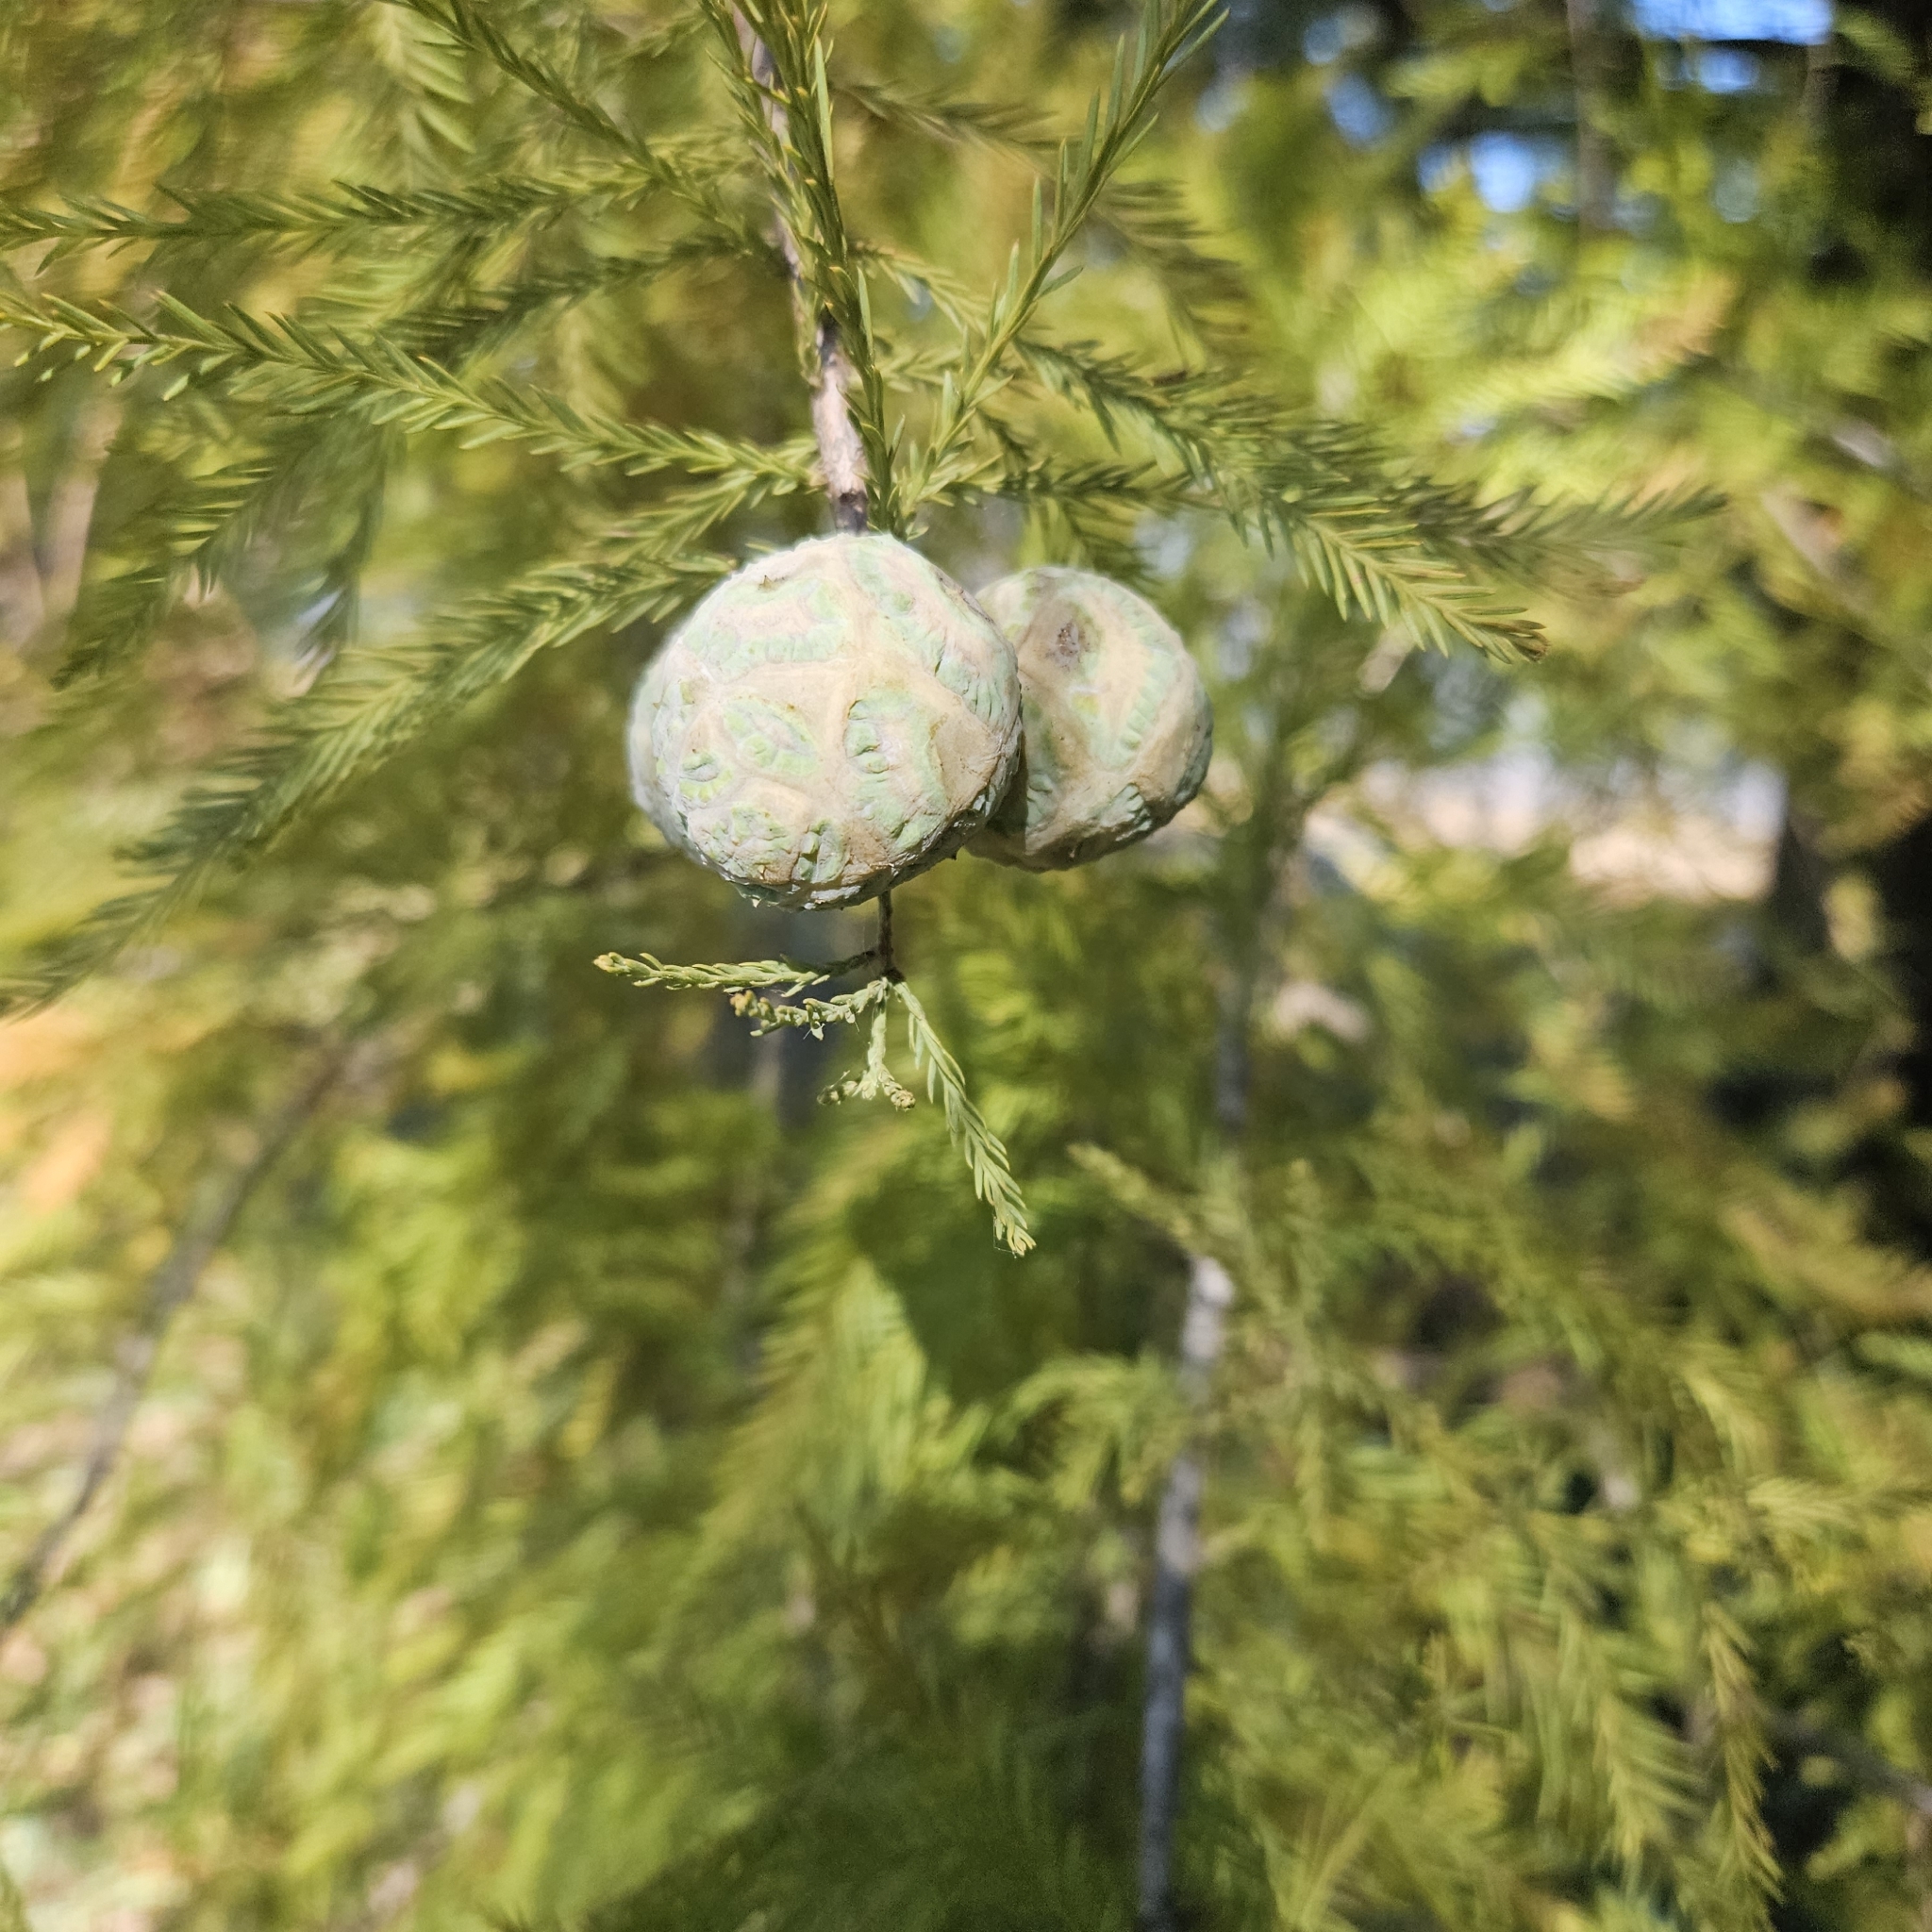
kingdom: Plantae
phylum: Tracheophyta
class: Pinopsida
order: Pinales
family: Cupressaceae
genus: Taxodium
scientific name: Taxodium distichum
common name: Bald cypress
